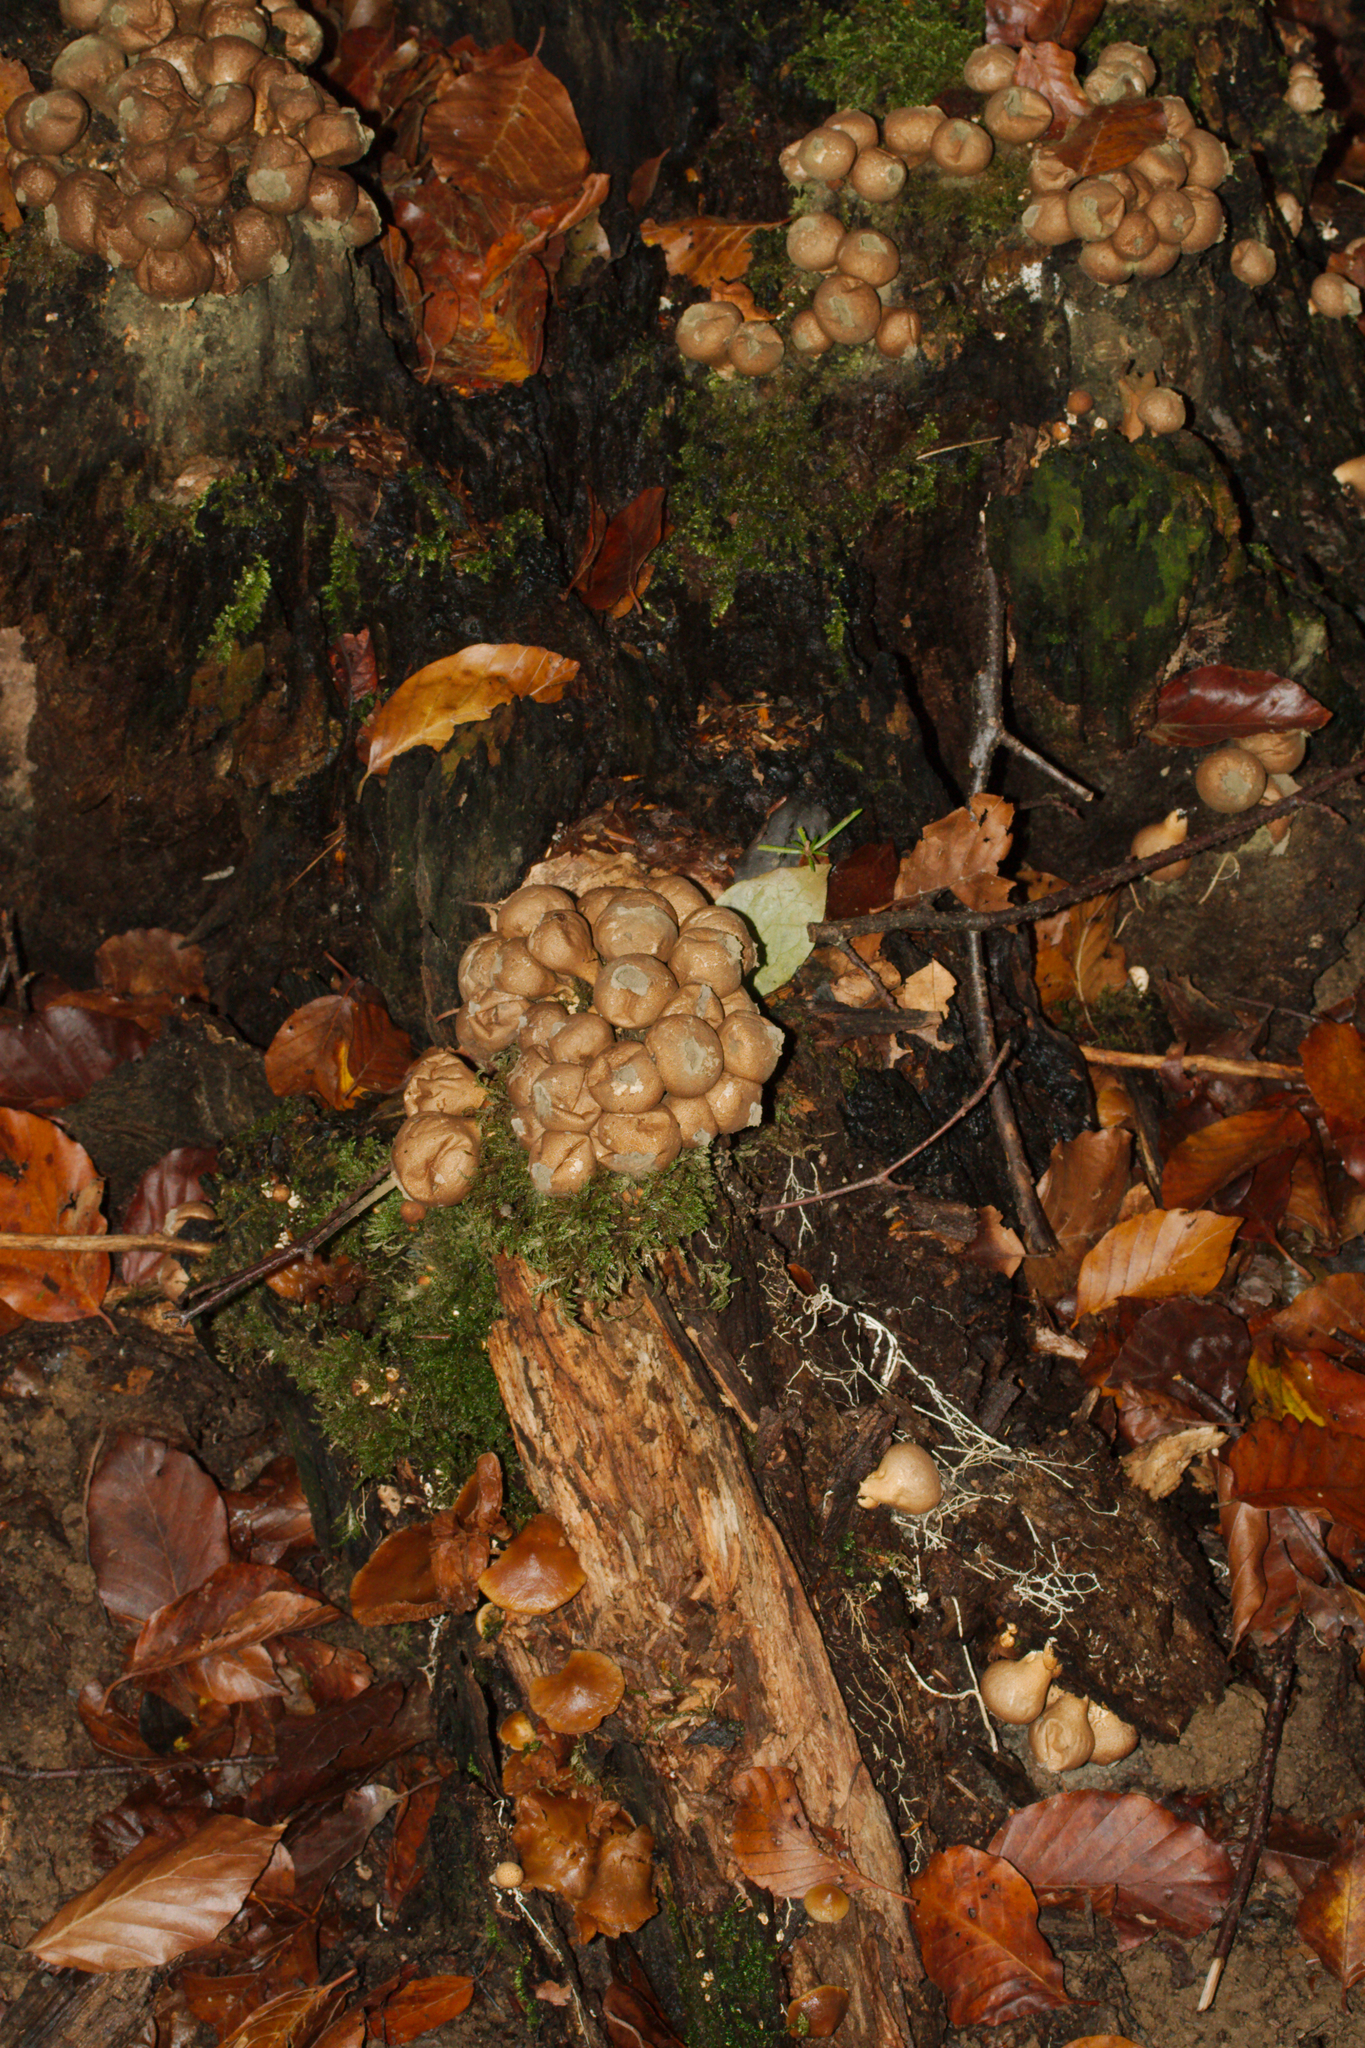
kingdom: Fungi
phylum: Basidiomycota
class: Agaricomycetes
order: Agaricales
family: Lycoperdaceae
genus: Apioperdon
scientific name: Apioperdon pyriforme
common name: Pear-shaped puffball
